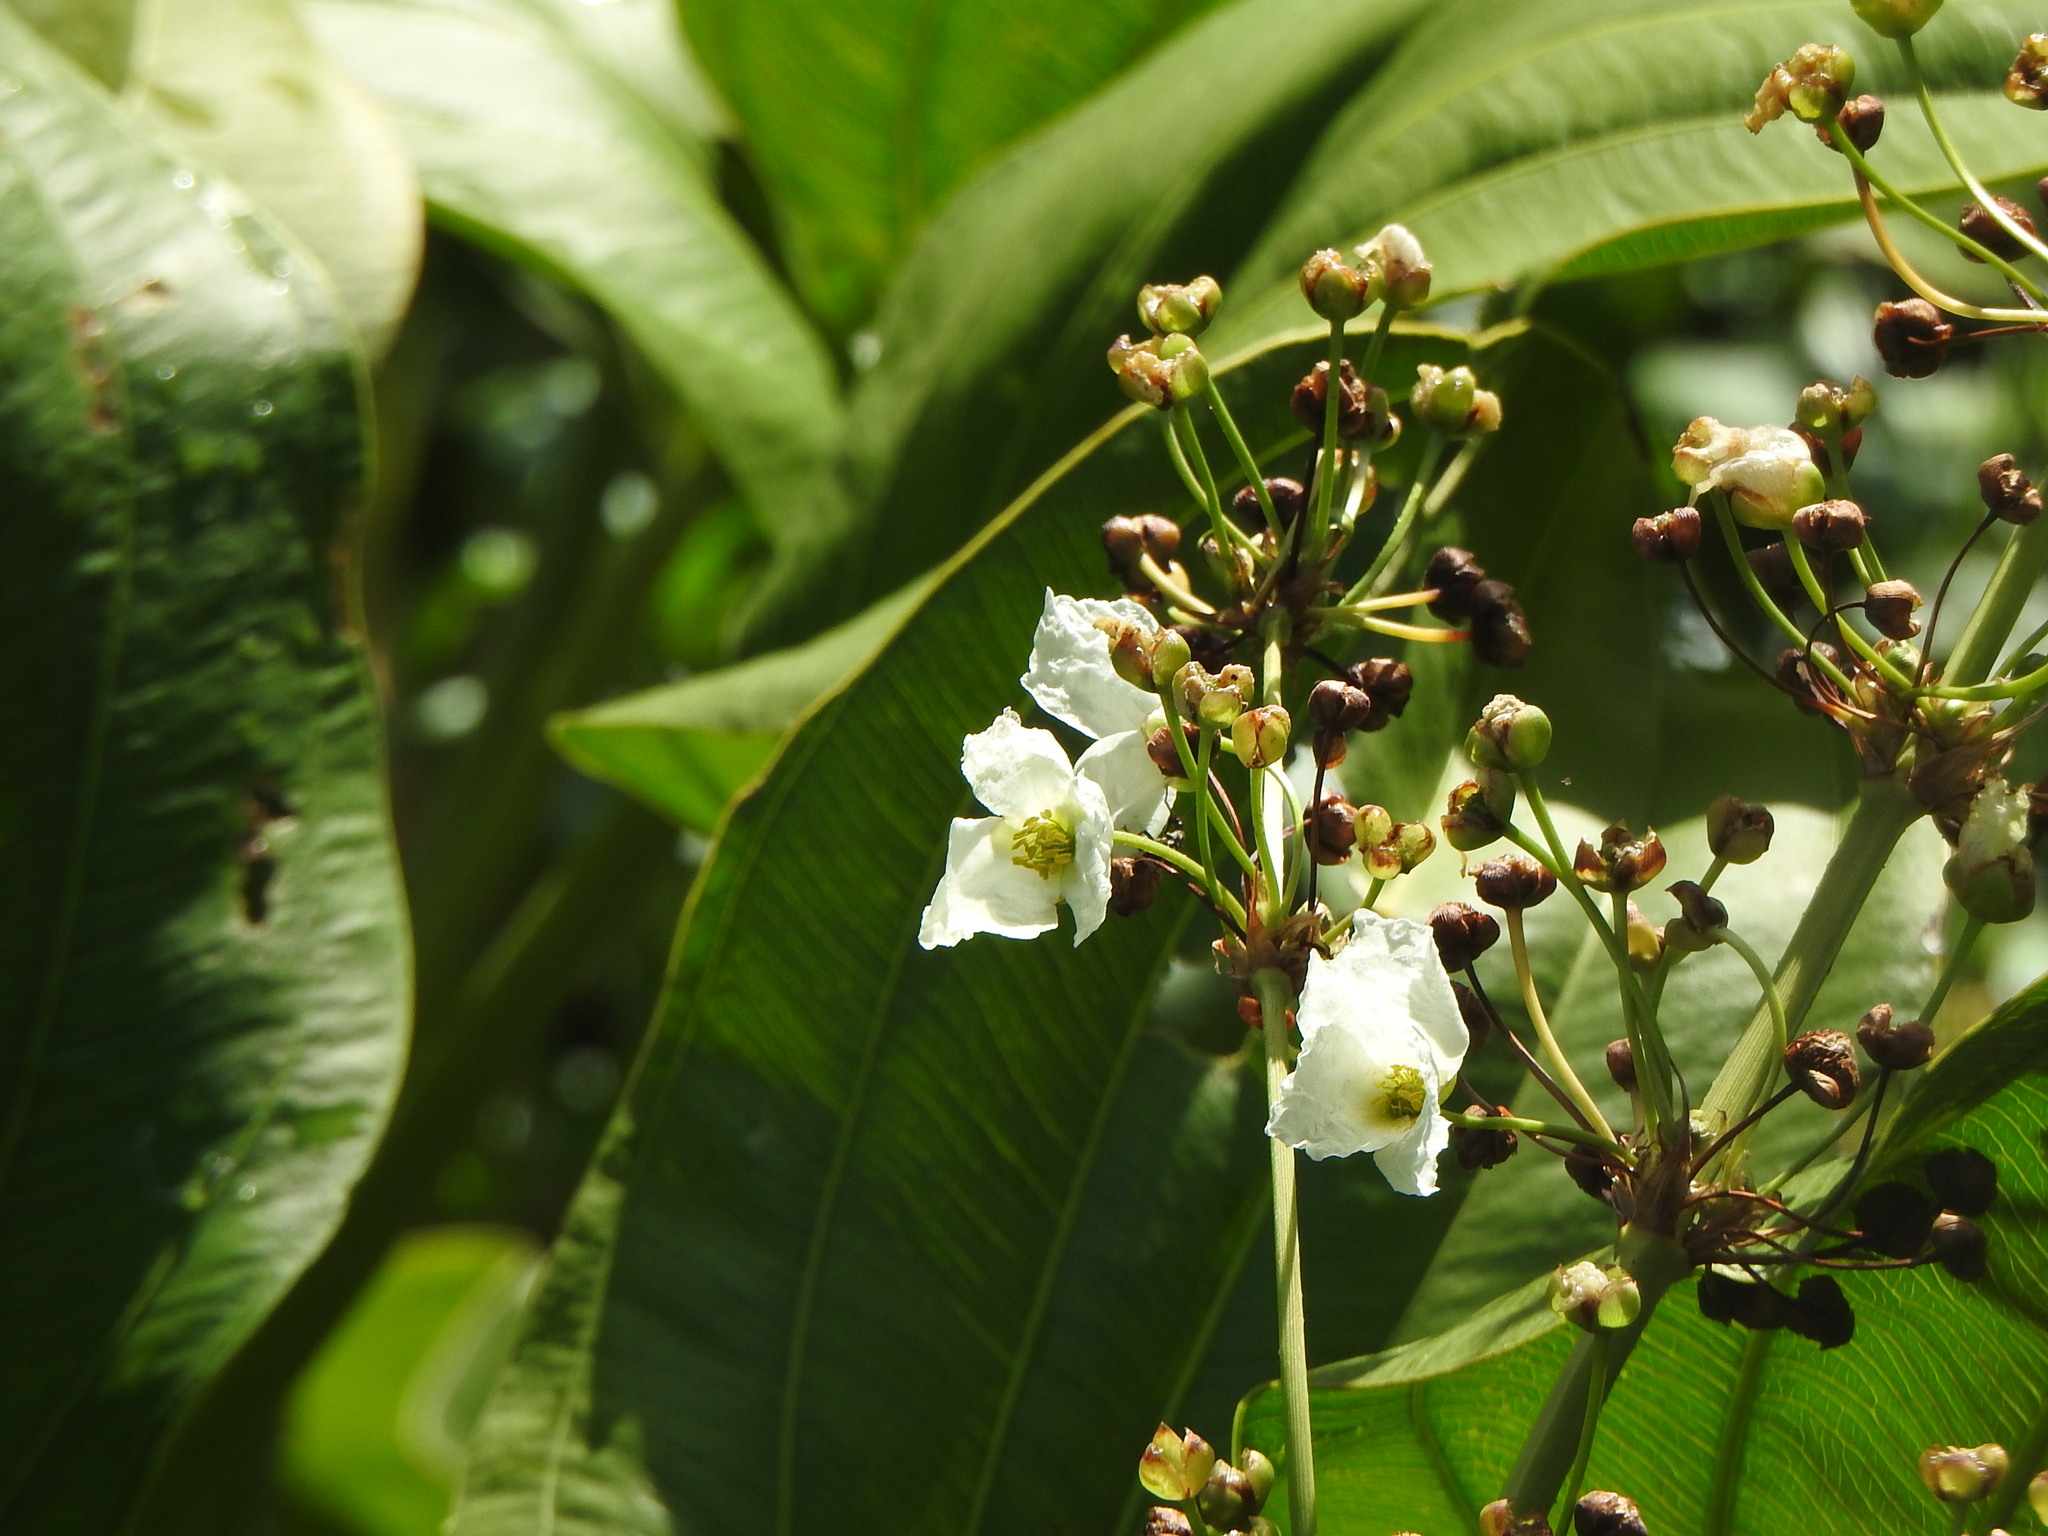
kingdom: Plantae
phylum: Tracheophyta
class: Liliopsida
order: Alismatales
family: Alismataceae
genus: Aquarius
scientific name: Aquarius grandiflorus
